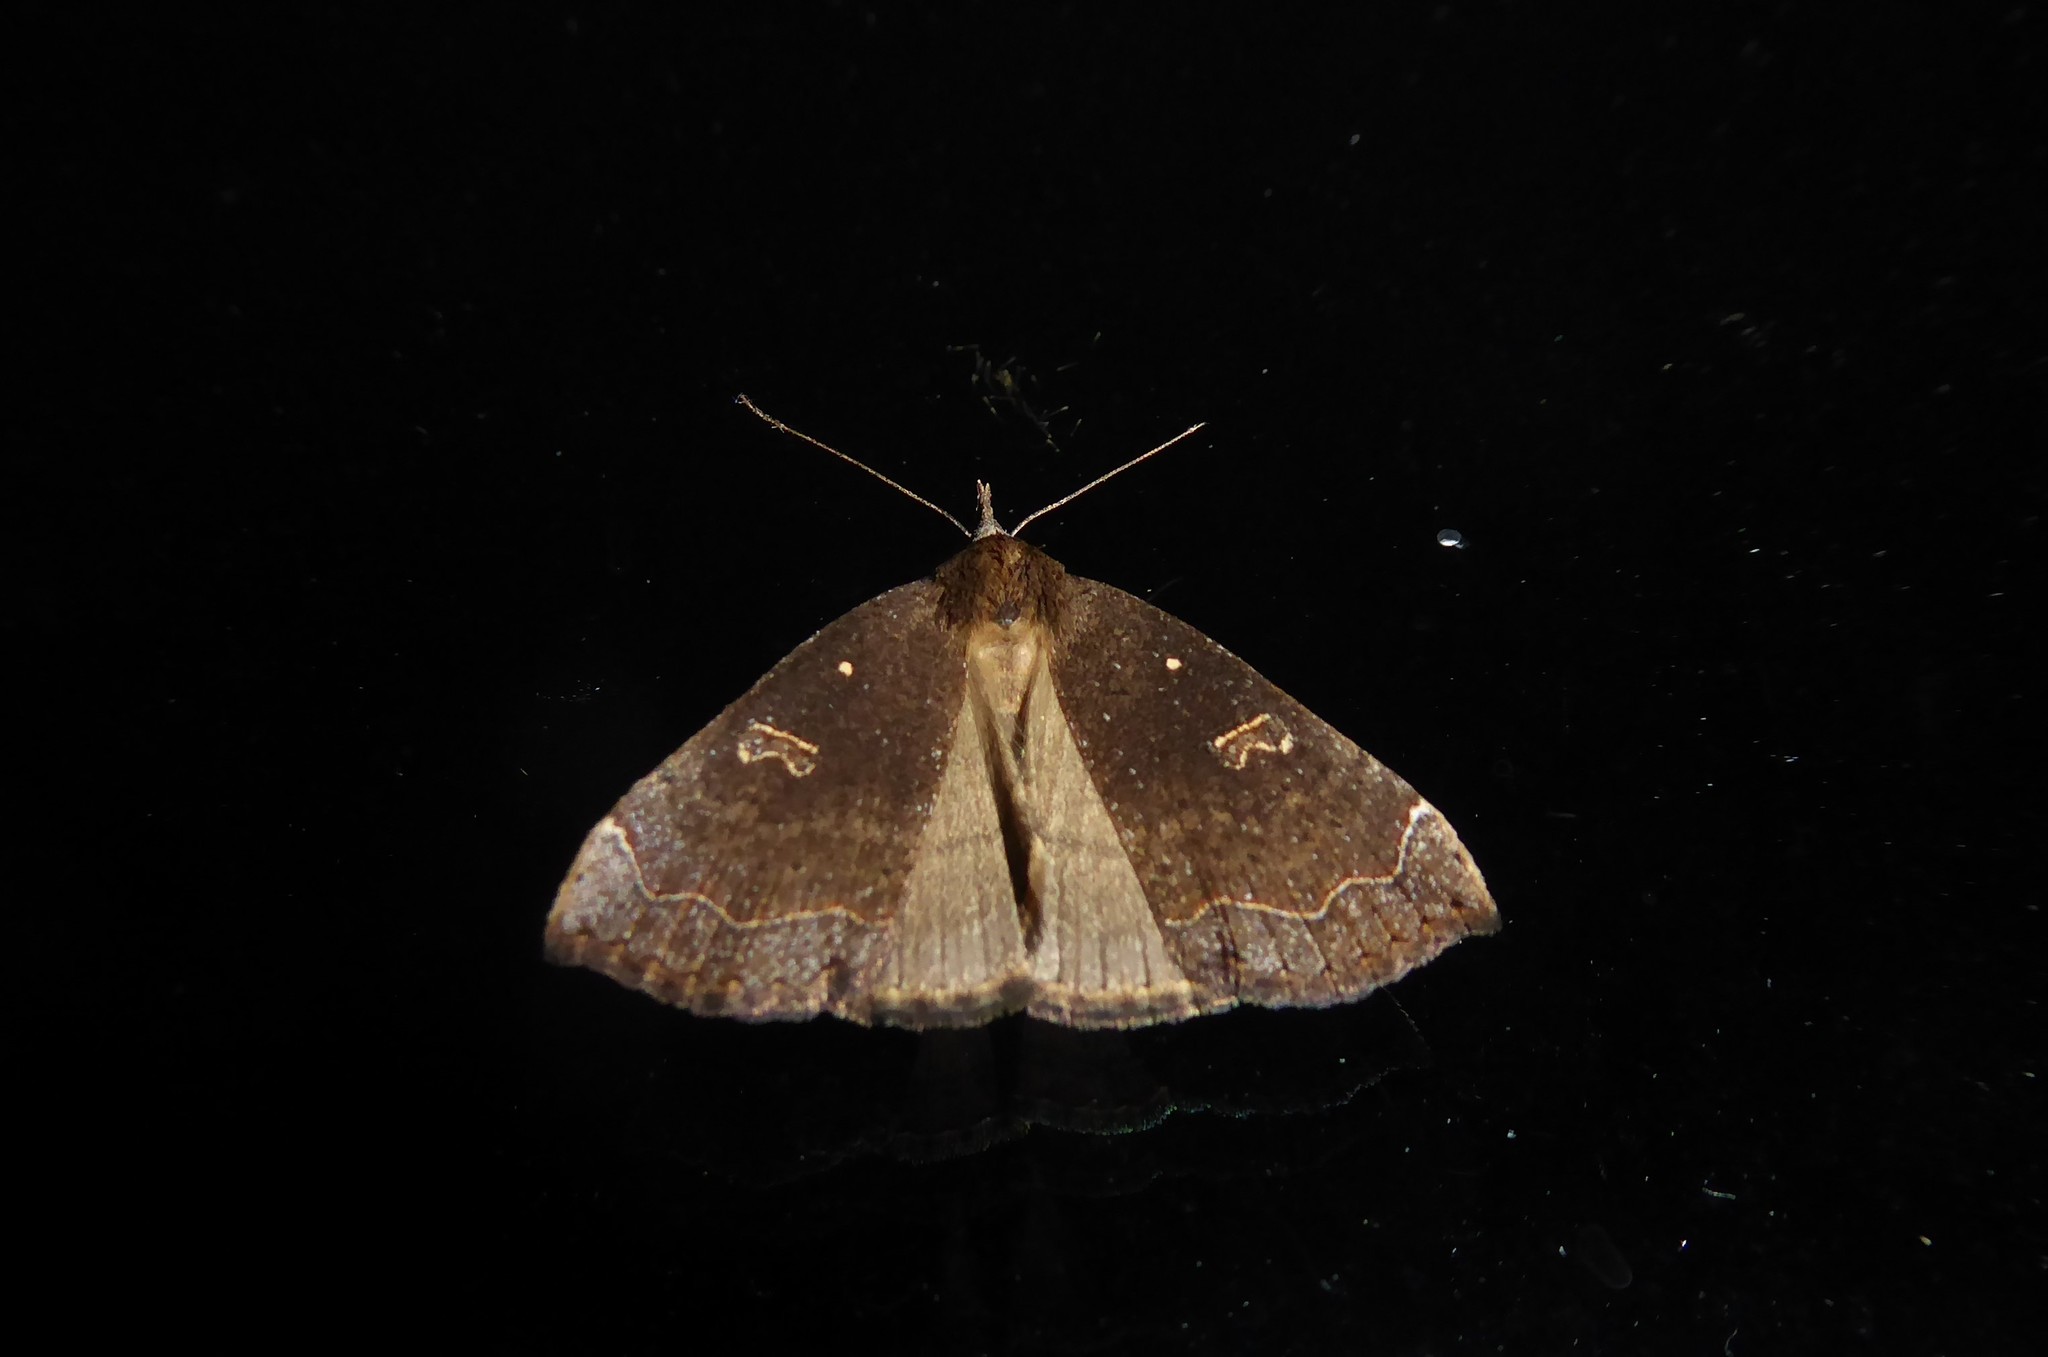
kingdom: Animalia
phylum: Arthropoda
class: Insecta
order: Lepidoptera
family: Erebidae
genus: Rhapsa
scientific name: Rhapsa scotosialis
